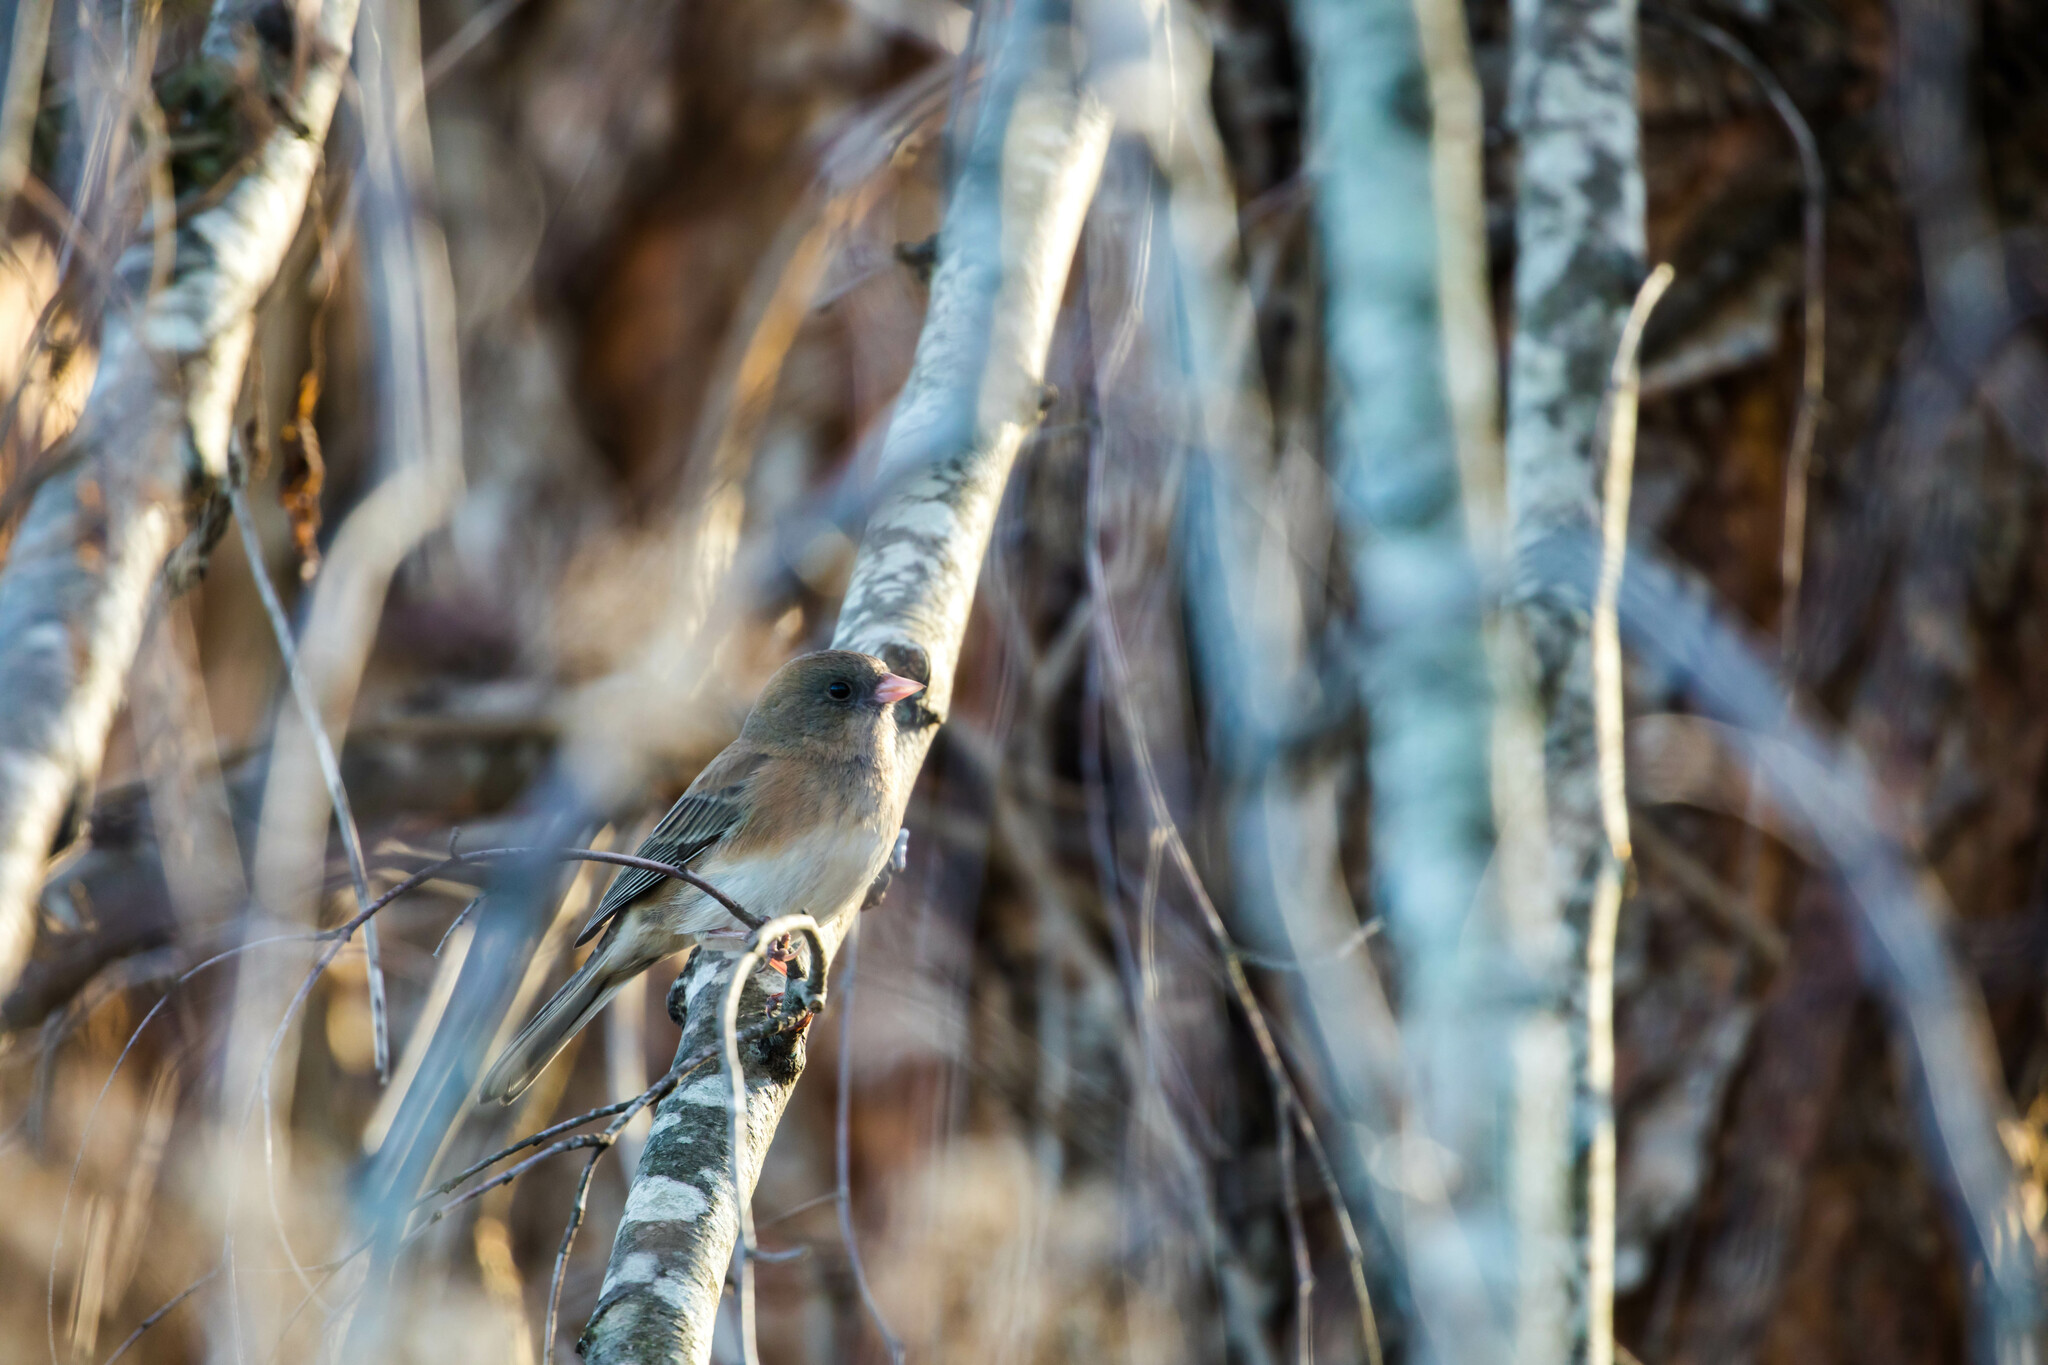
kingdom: Animalia
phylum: Chordata
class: Aves
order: Passeriformes
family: Passerellidae
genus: Junco
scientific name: Junco hyemalis
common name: Dark-eyed junco
